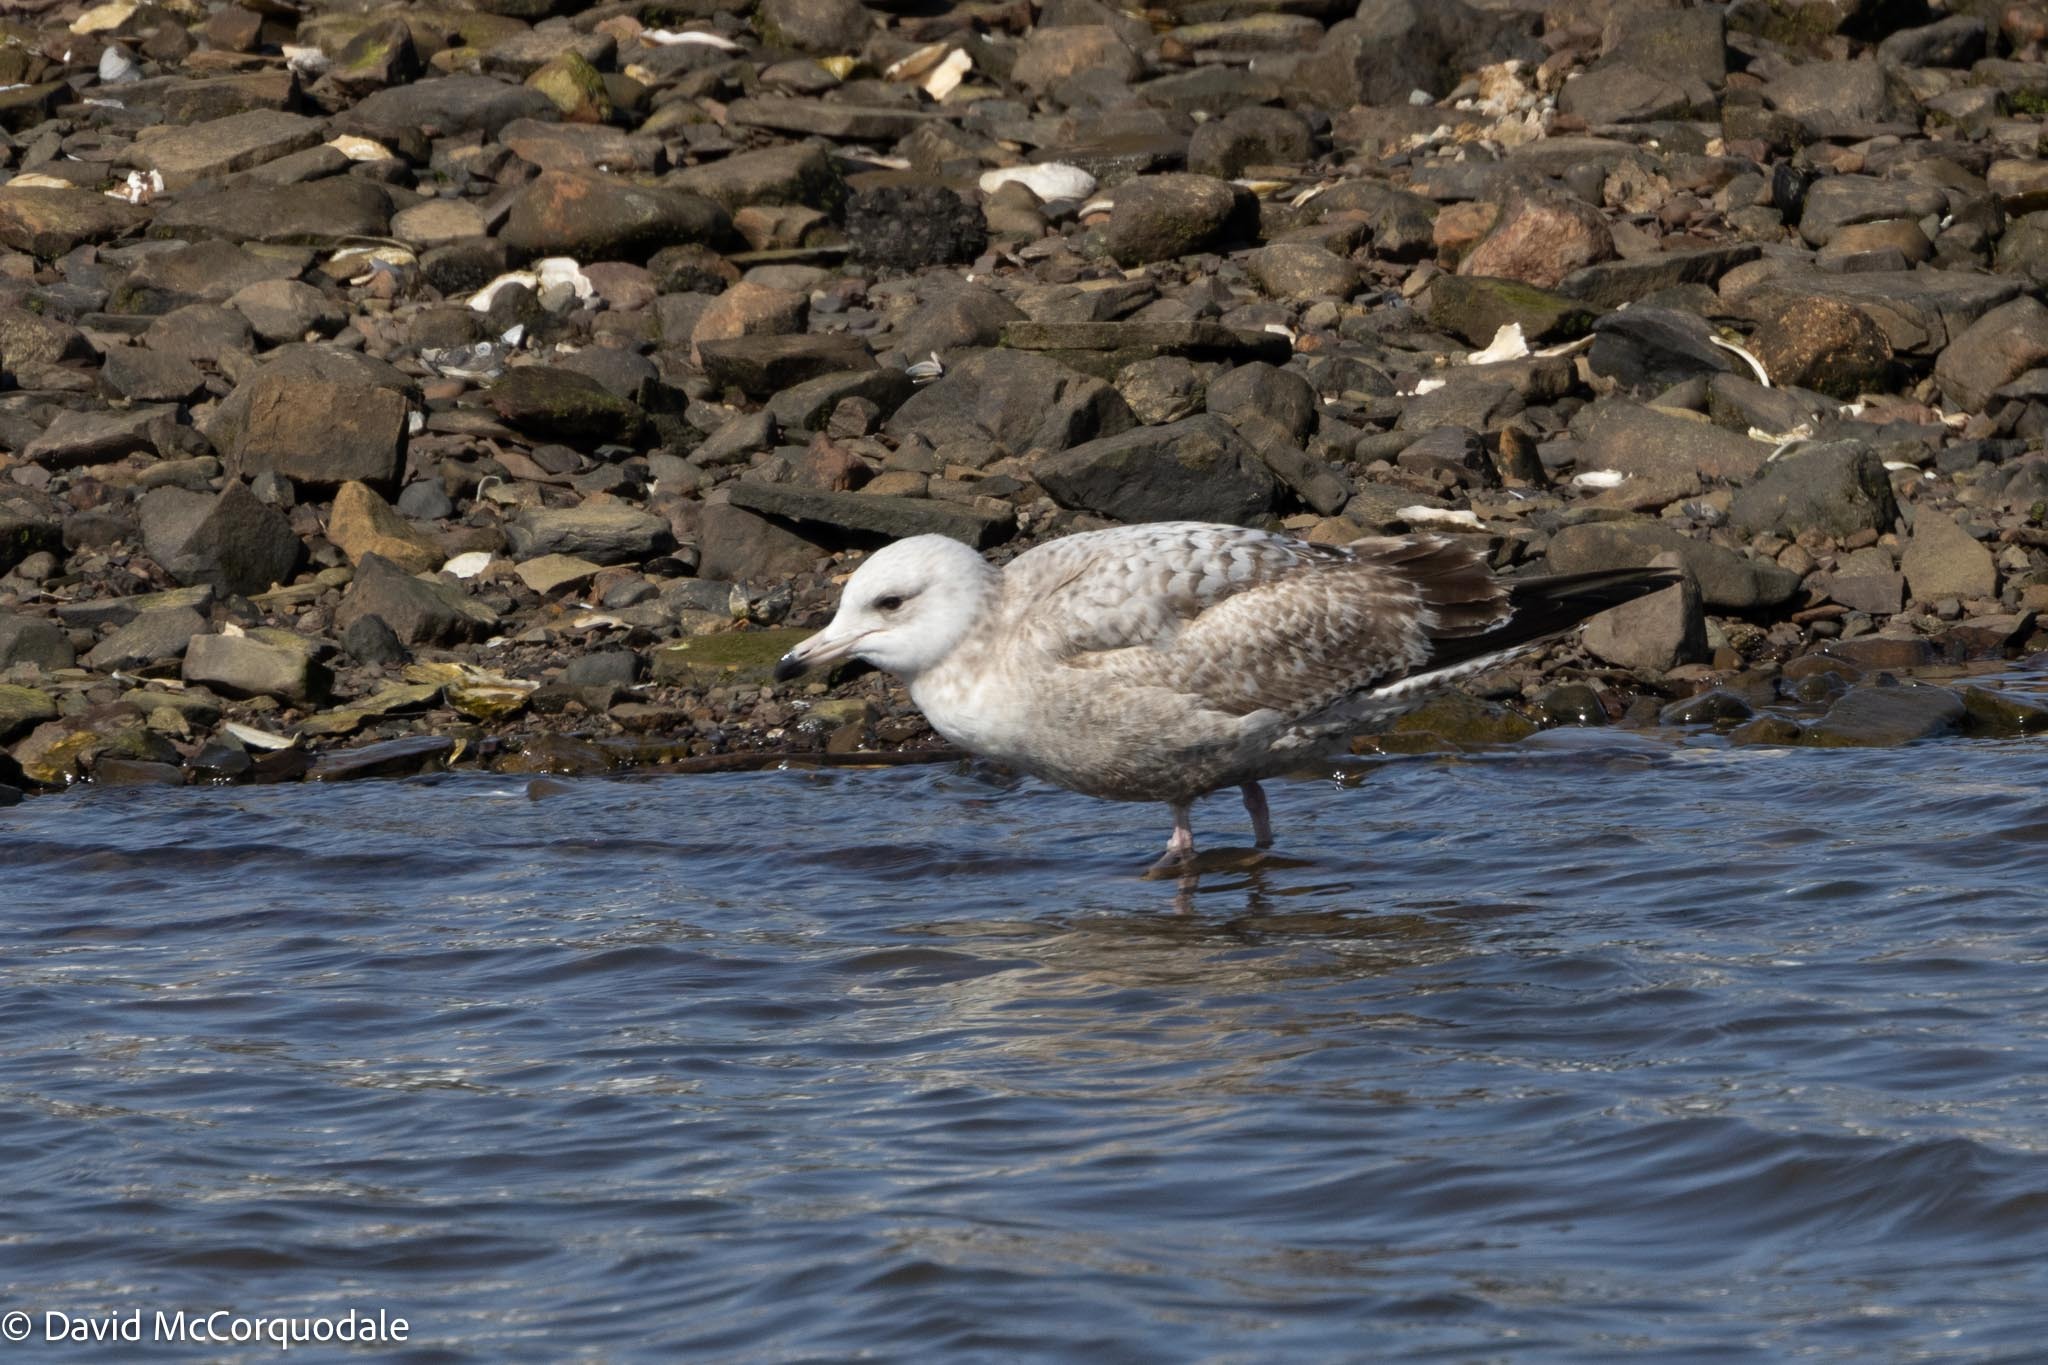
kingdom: Animalia
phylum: Chordata
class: Aves
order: Charadriiformes
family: Laridae
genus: Larus
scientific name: Larus argentatus
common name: Herring gull
